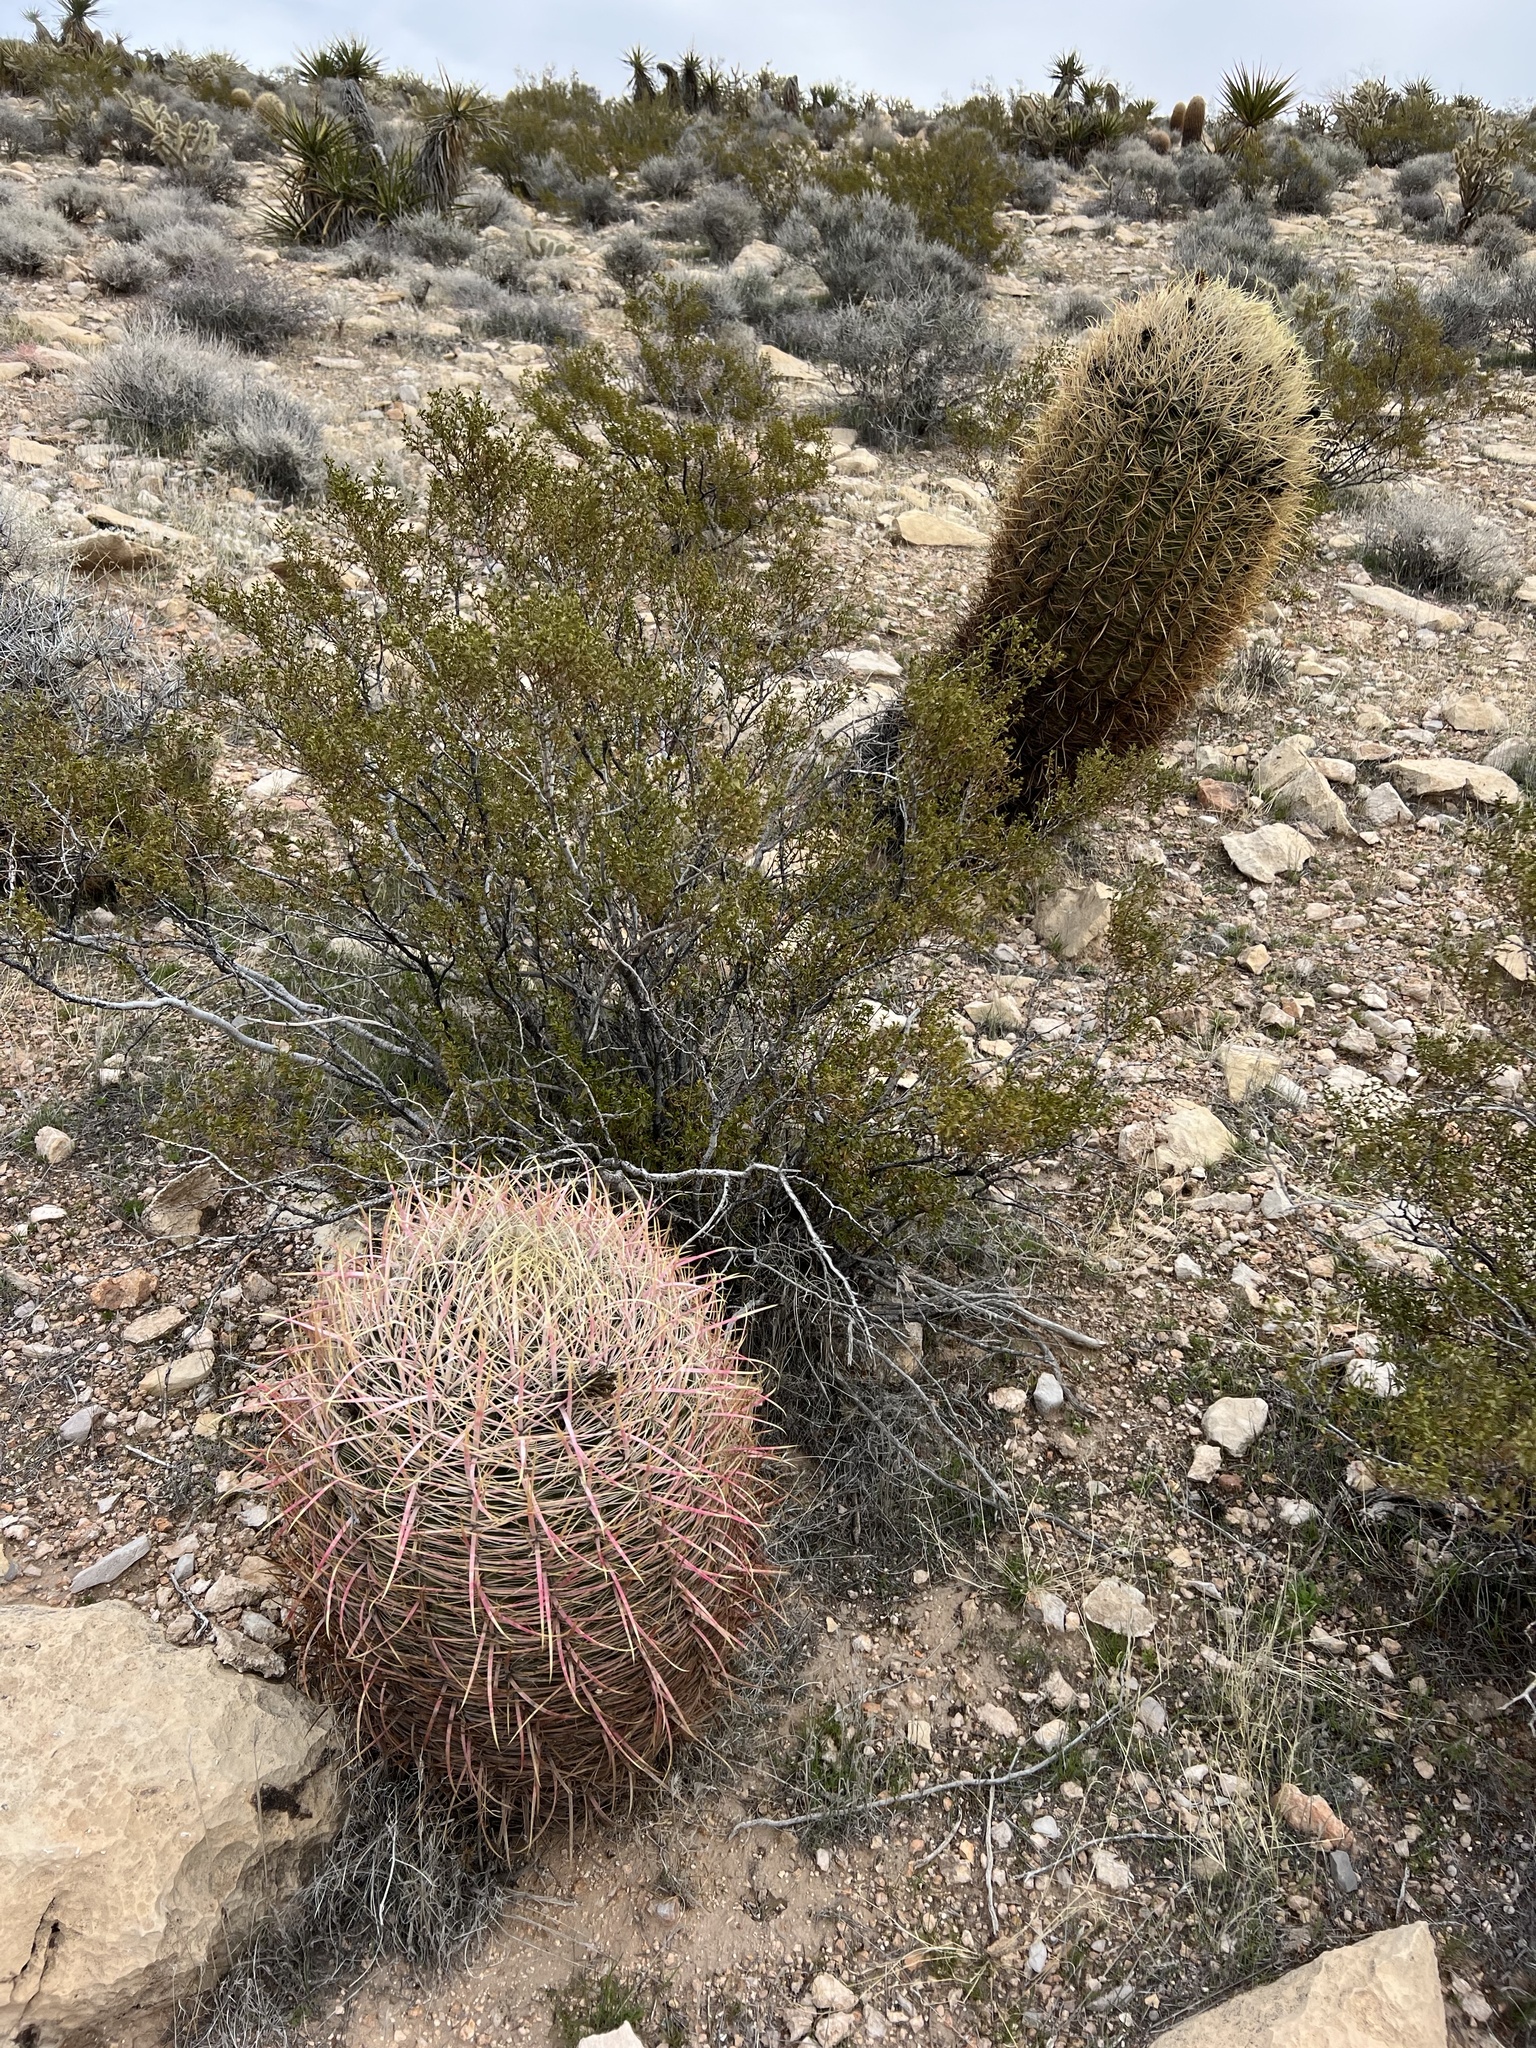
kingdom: Plantae
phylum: Tracheophyta
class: Magnoliopsida
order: Caryophyllales
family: Cactaceae
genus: Ferocactus
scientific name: Ferocactus cylindraceus
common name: California barrel cactus
